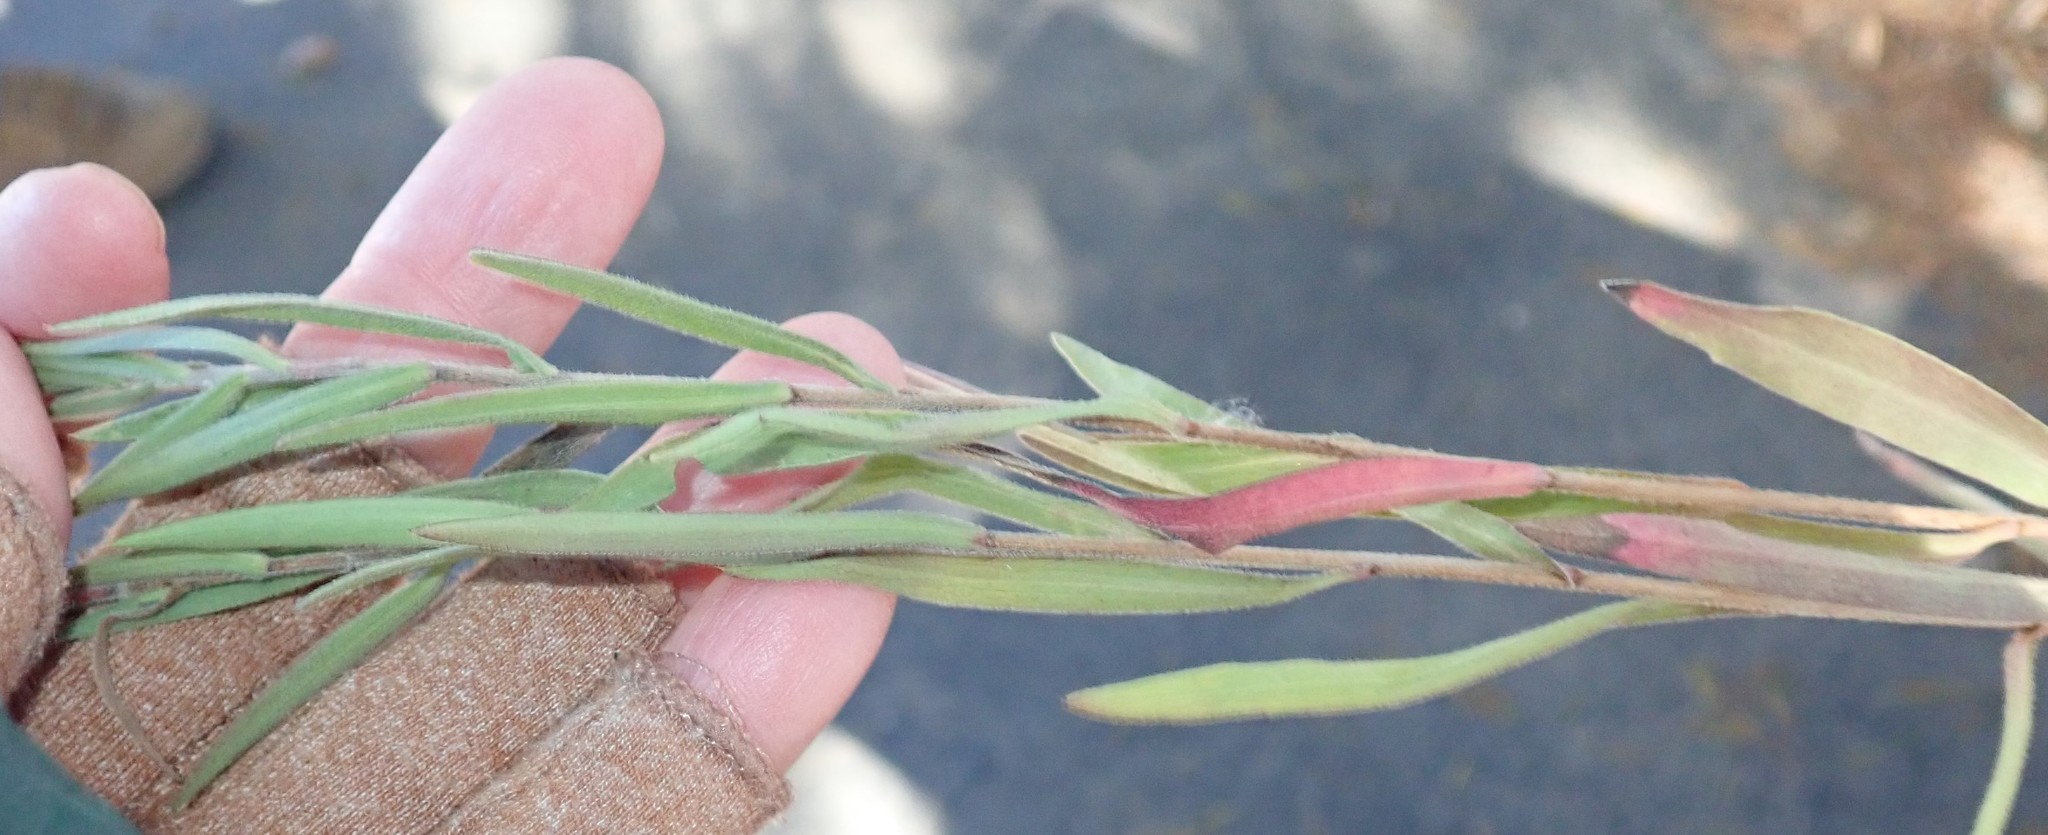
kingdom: Plantae
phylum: Tracheophyta
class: Magnoliopsida
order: Asterales
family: Asteraceae
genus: Symphyotrichum
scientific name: Symphyotrichum defoliatum
